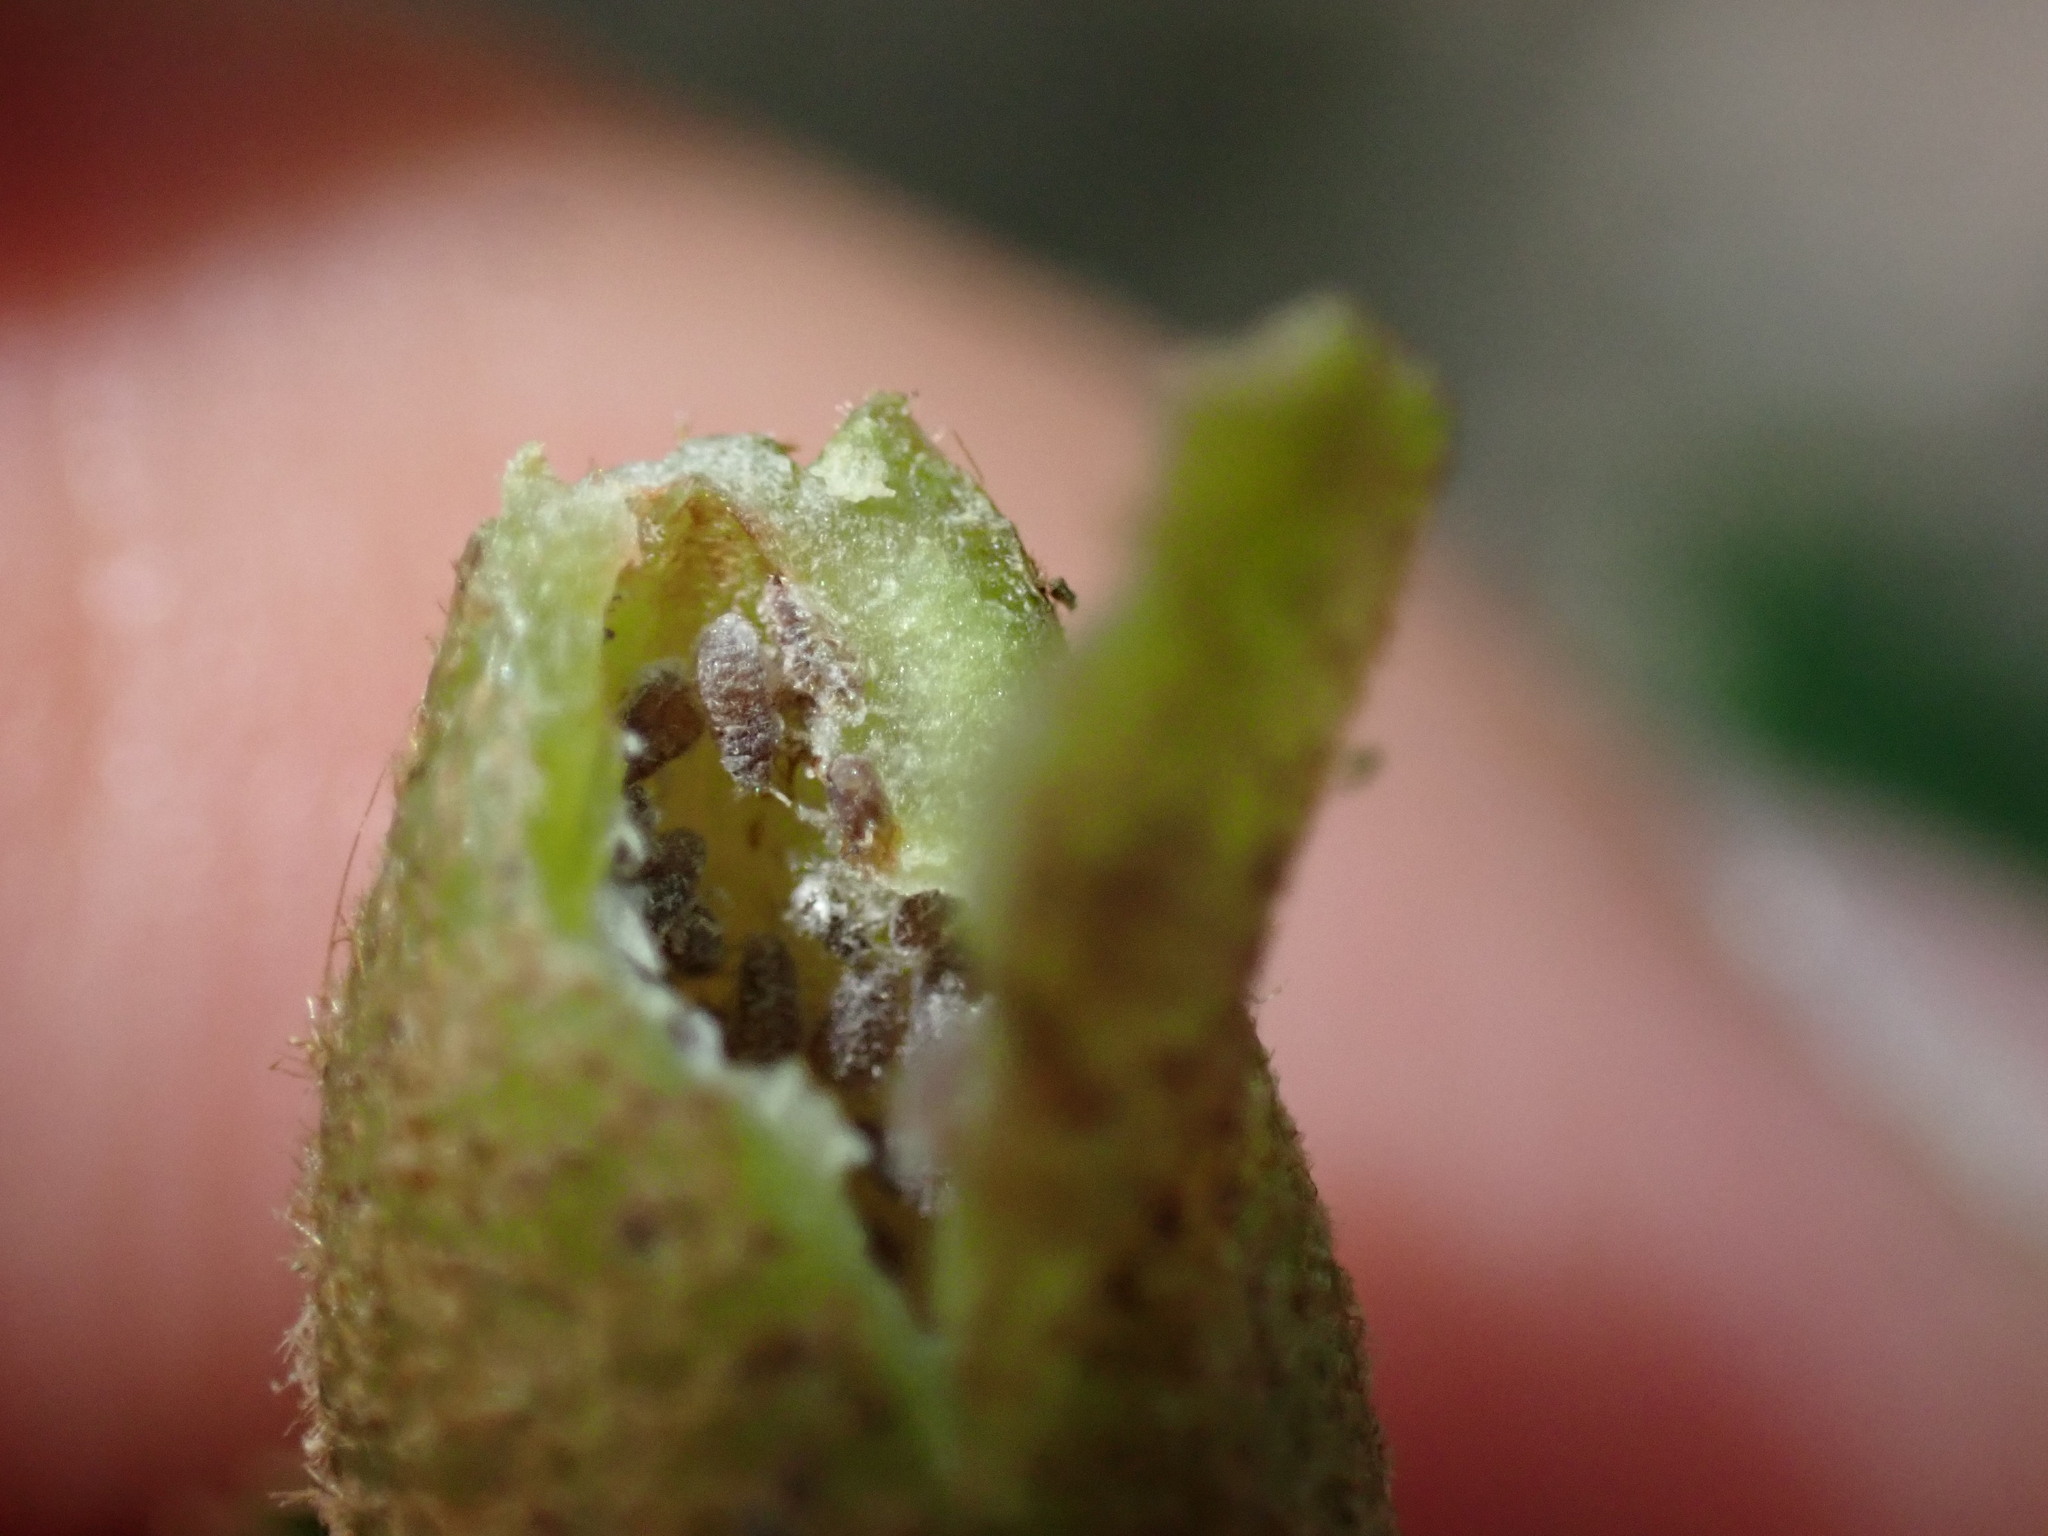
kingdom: Animalia
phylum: Arthropoda
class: Insecta
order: Hemiptera
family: Aphididae
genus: Hormaphis
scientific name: Hormaphis hamamelidis
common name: Witch-hazel cone gall aphid
